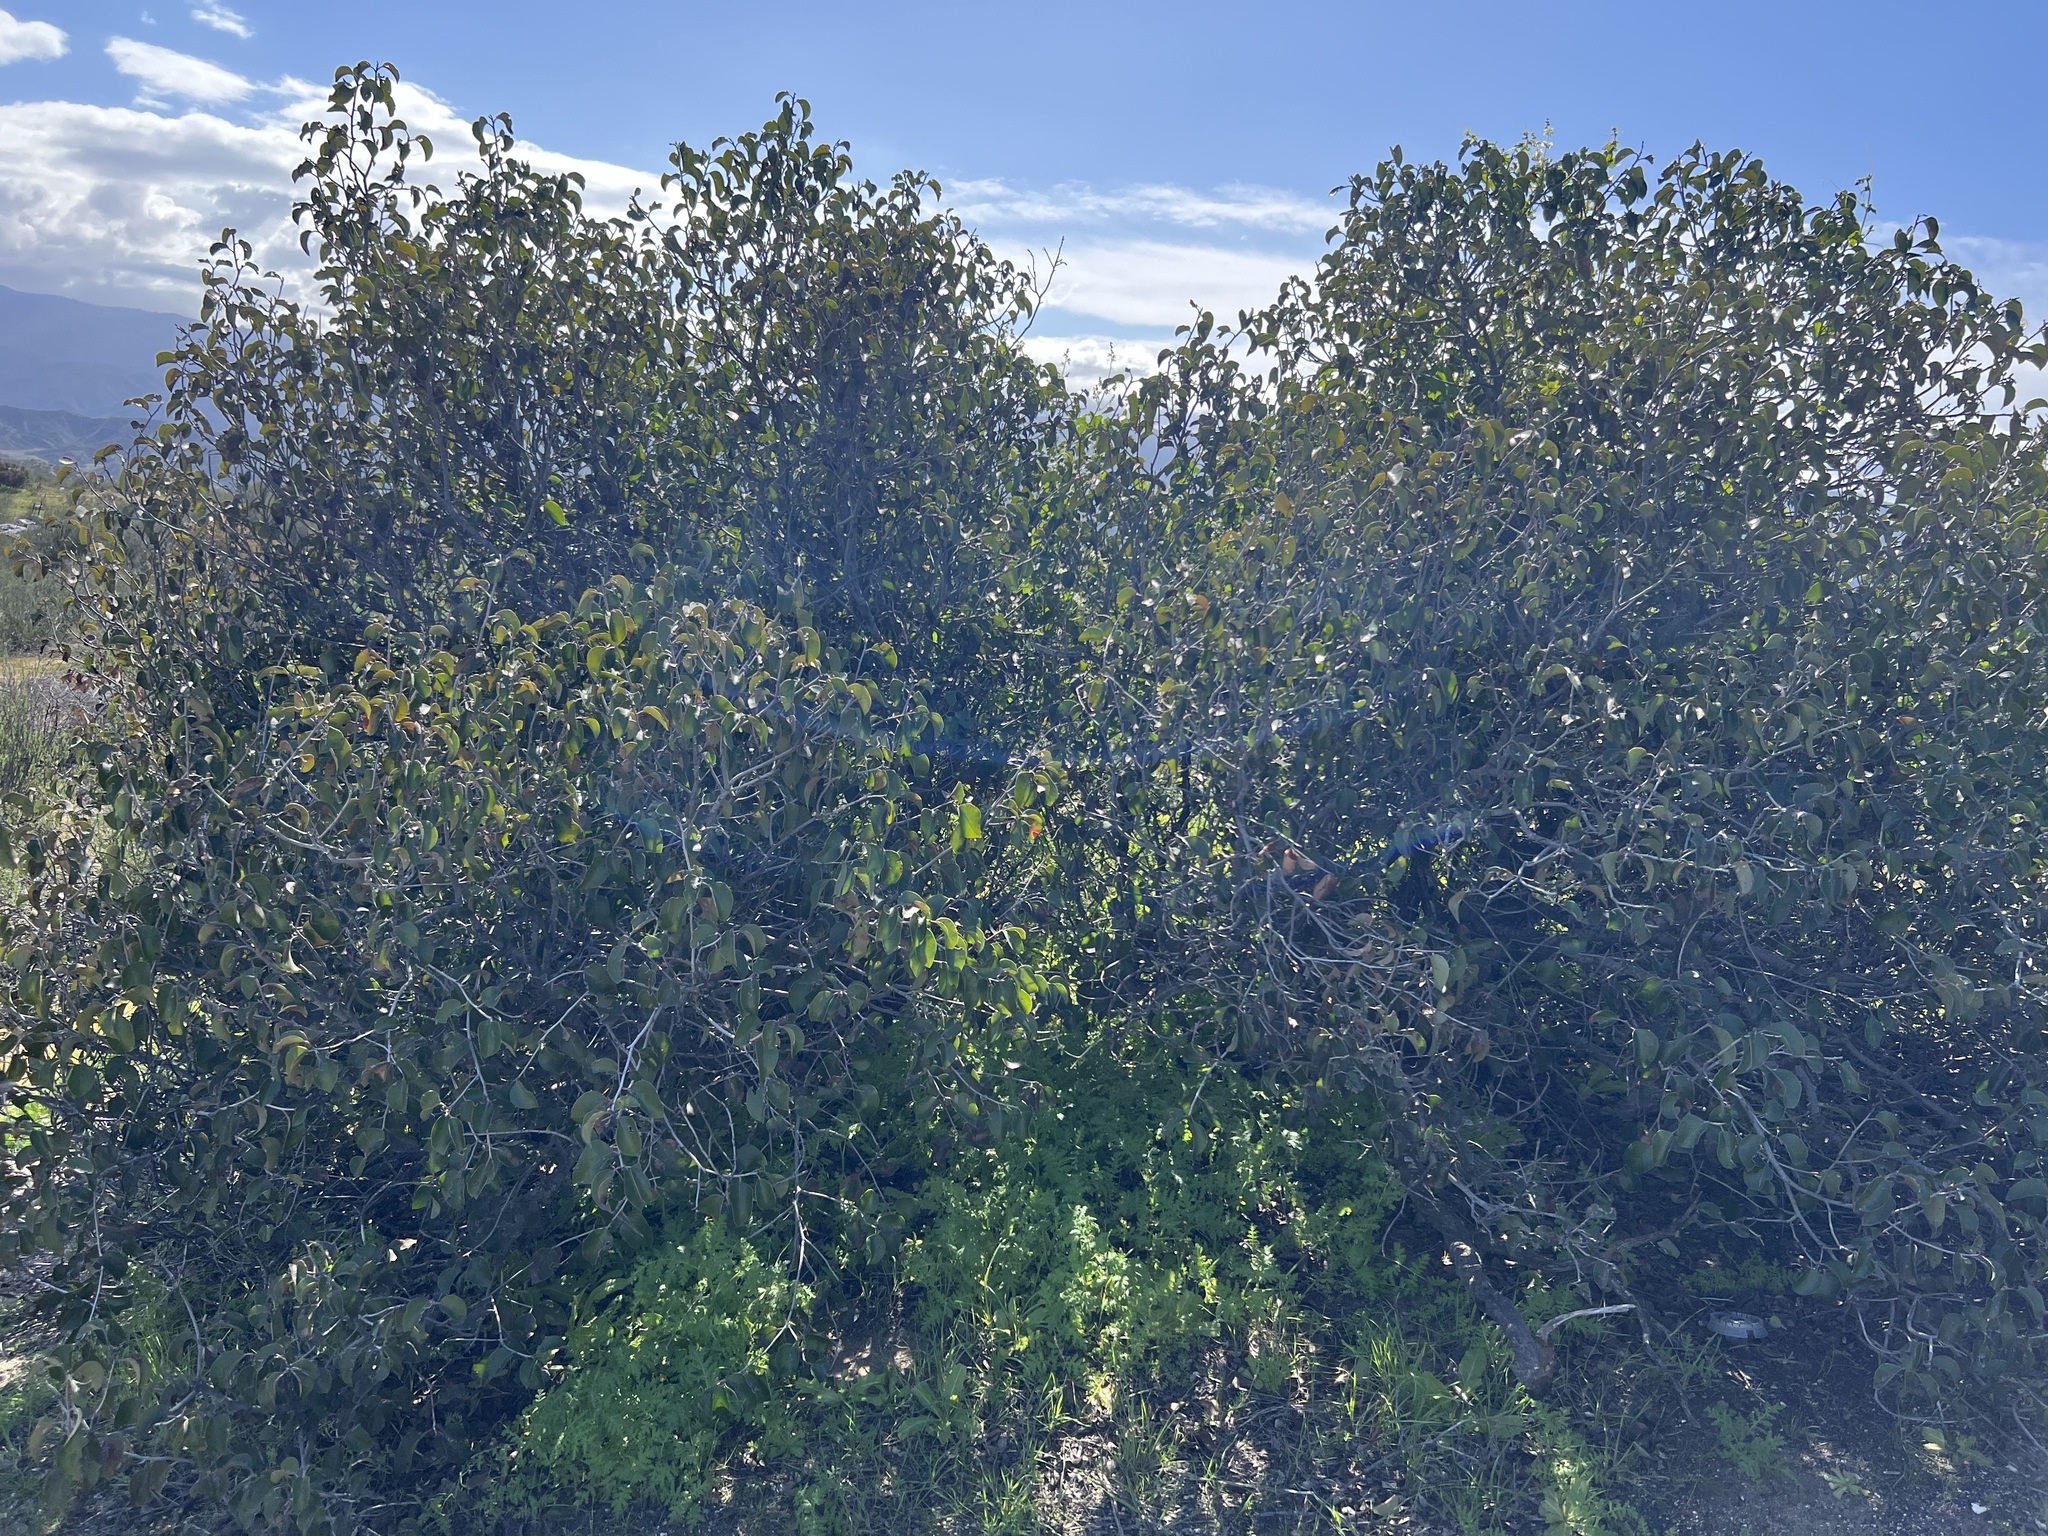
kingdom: Plantae
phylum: Tracheophyta
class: Magnoliopsida
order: Sapindales
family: Anacardiaceae
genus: Rhus
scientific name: Rhus ovata
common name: Sugar sumac
